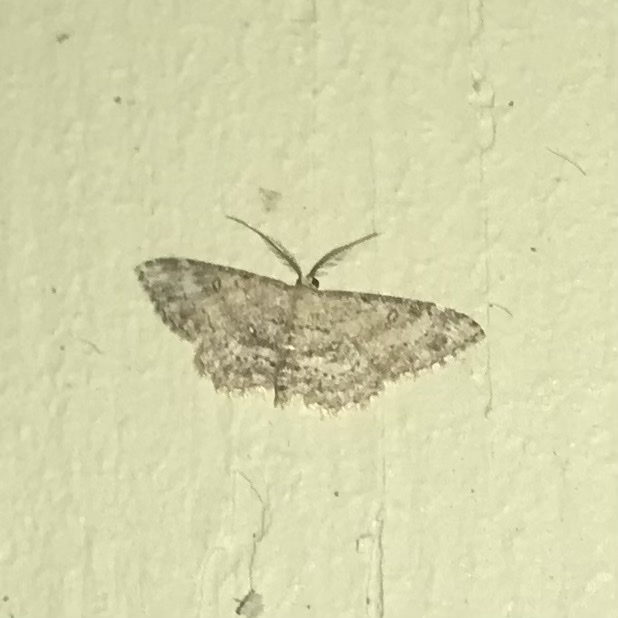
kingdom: Animalia
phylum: Arthropoda
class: Insecta
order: Lepidoptera
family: Geometridae
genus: Cyclophora
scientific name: Cyclophora nanaria
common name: Cankerworm
